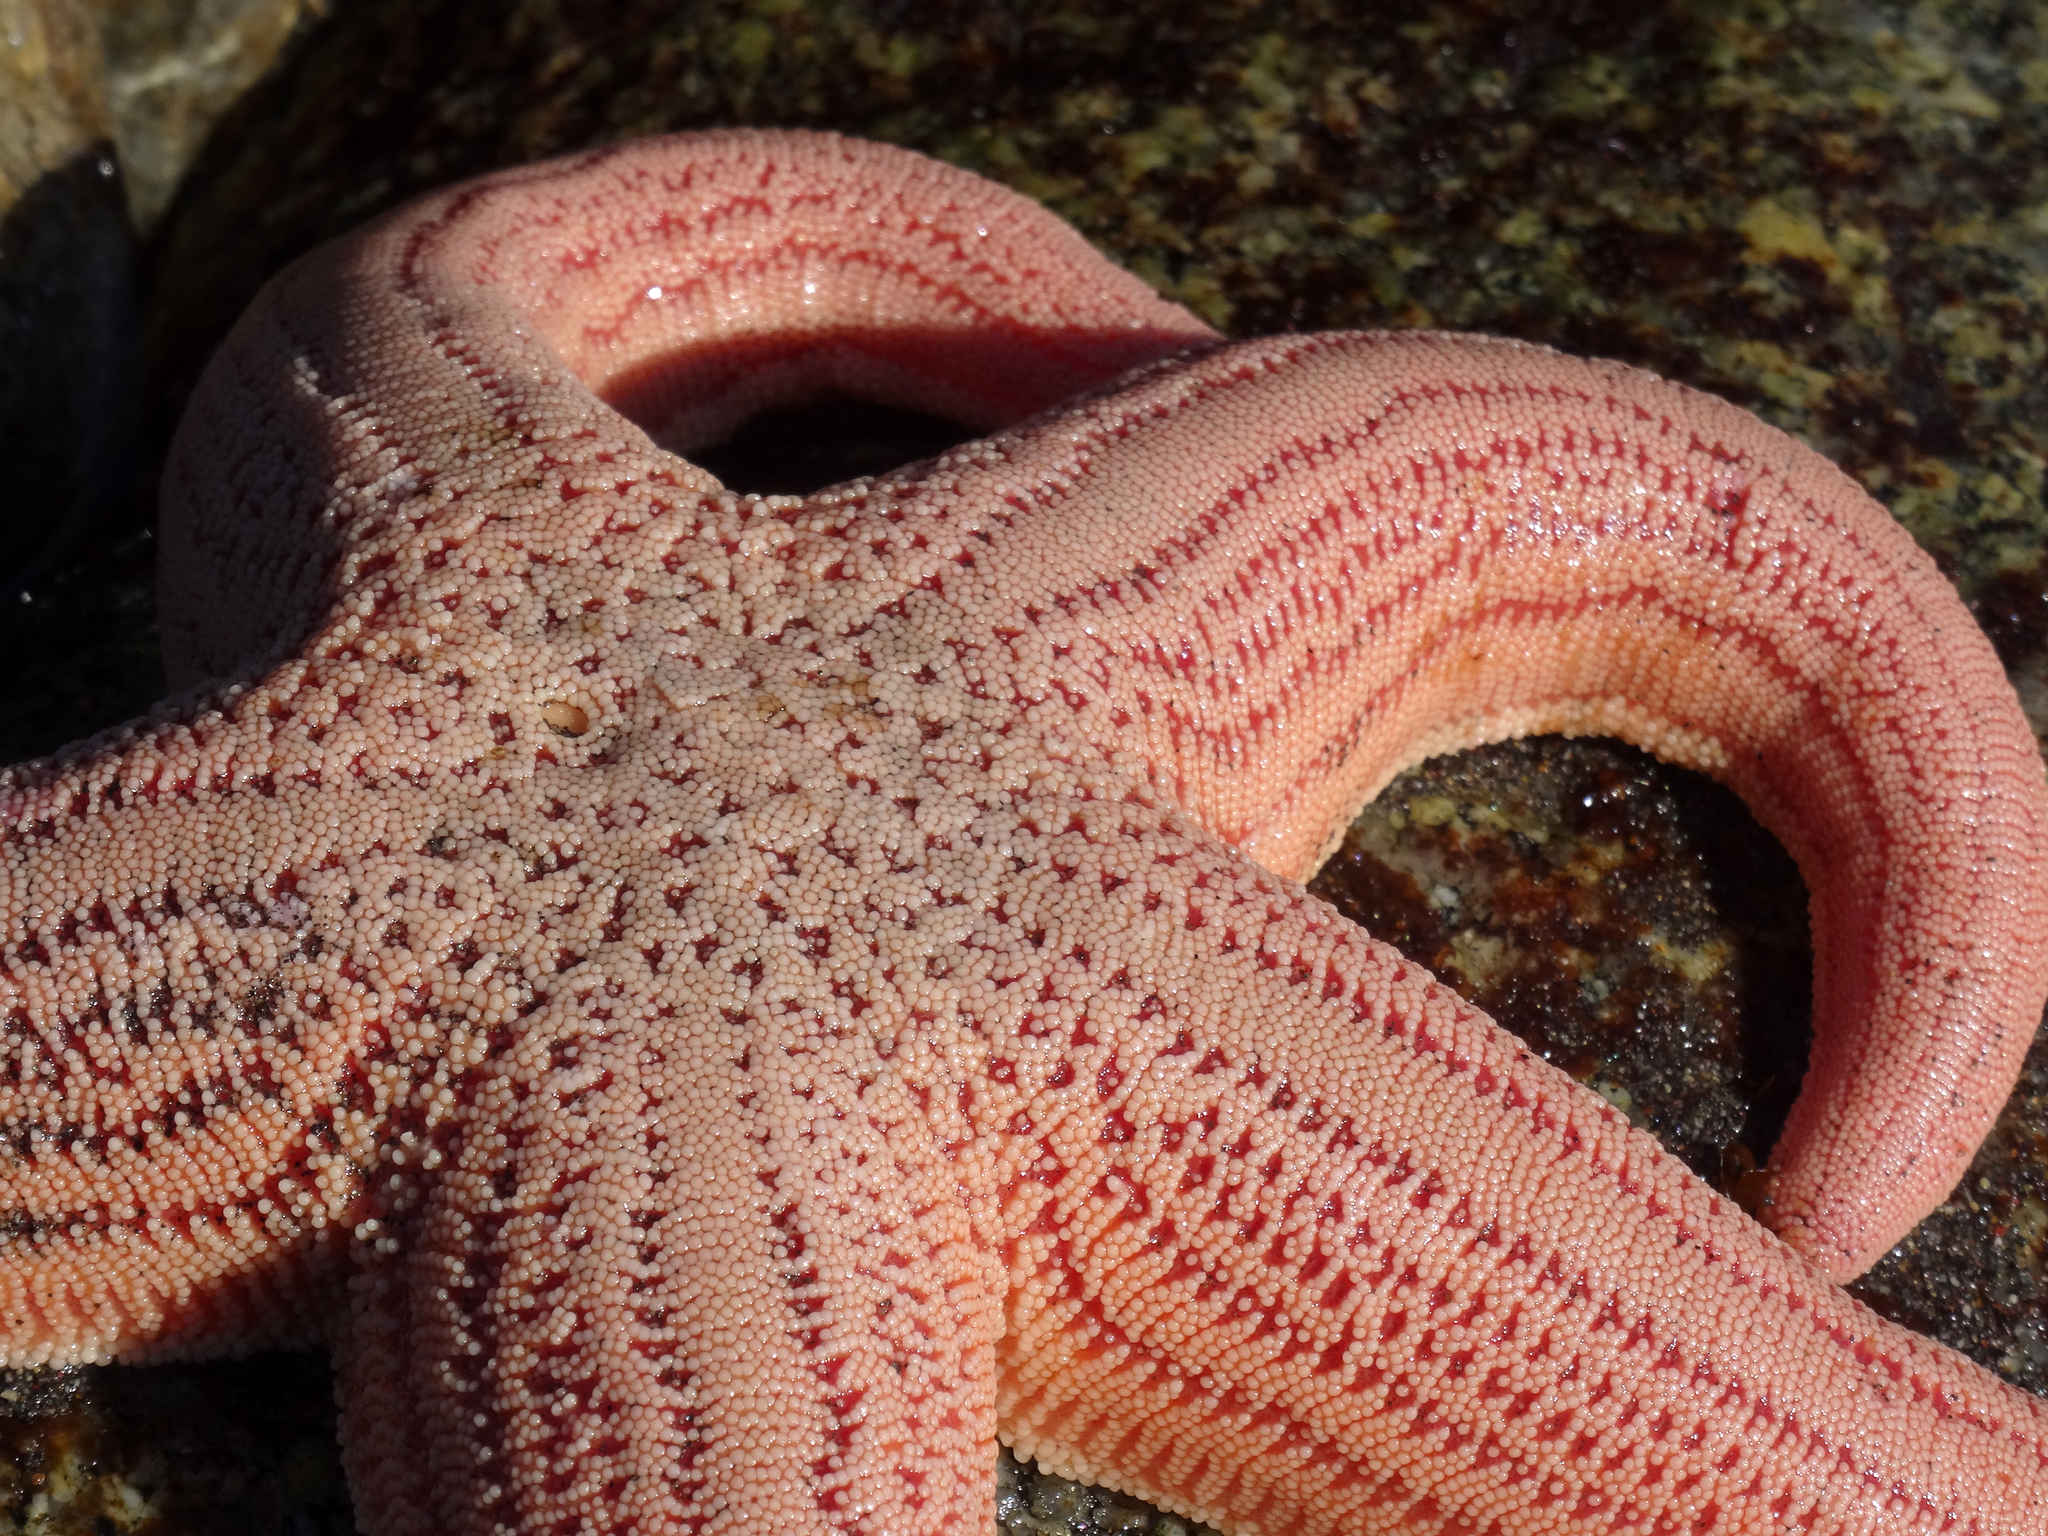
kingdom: Animalia
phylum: Echinodermata
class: Asteroidea
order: Forcipulatida
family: Stichasteridae
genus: Stichaster
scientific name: Stichaster striatus
